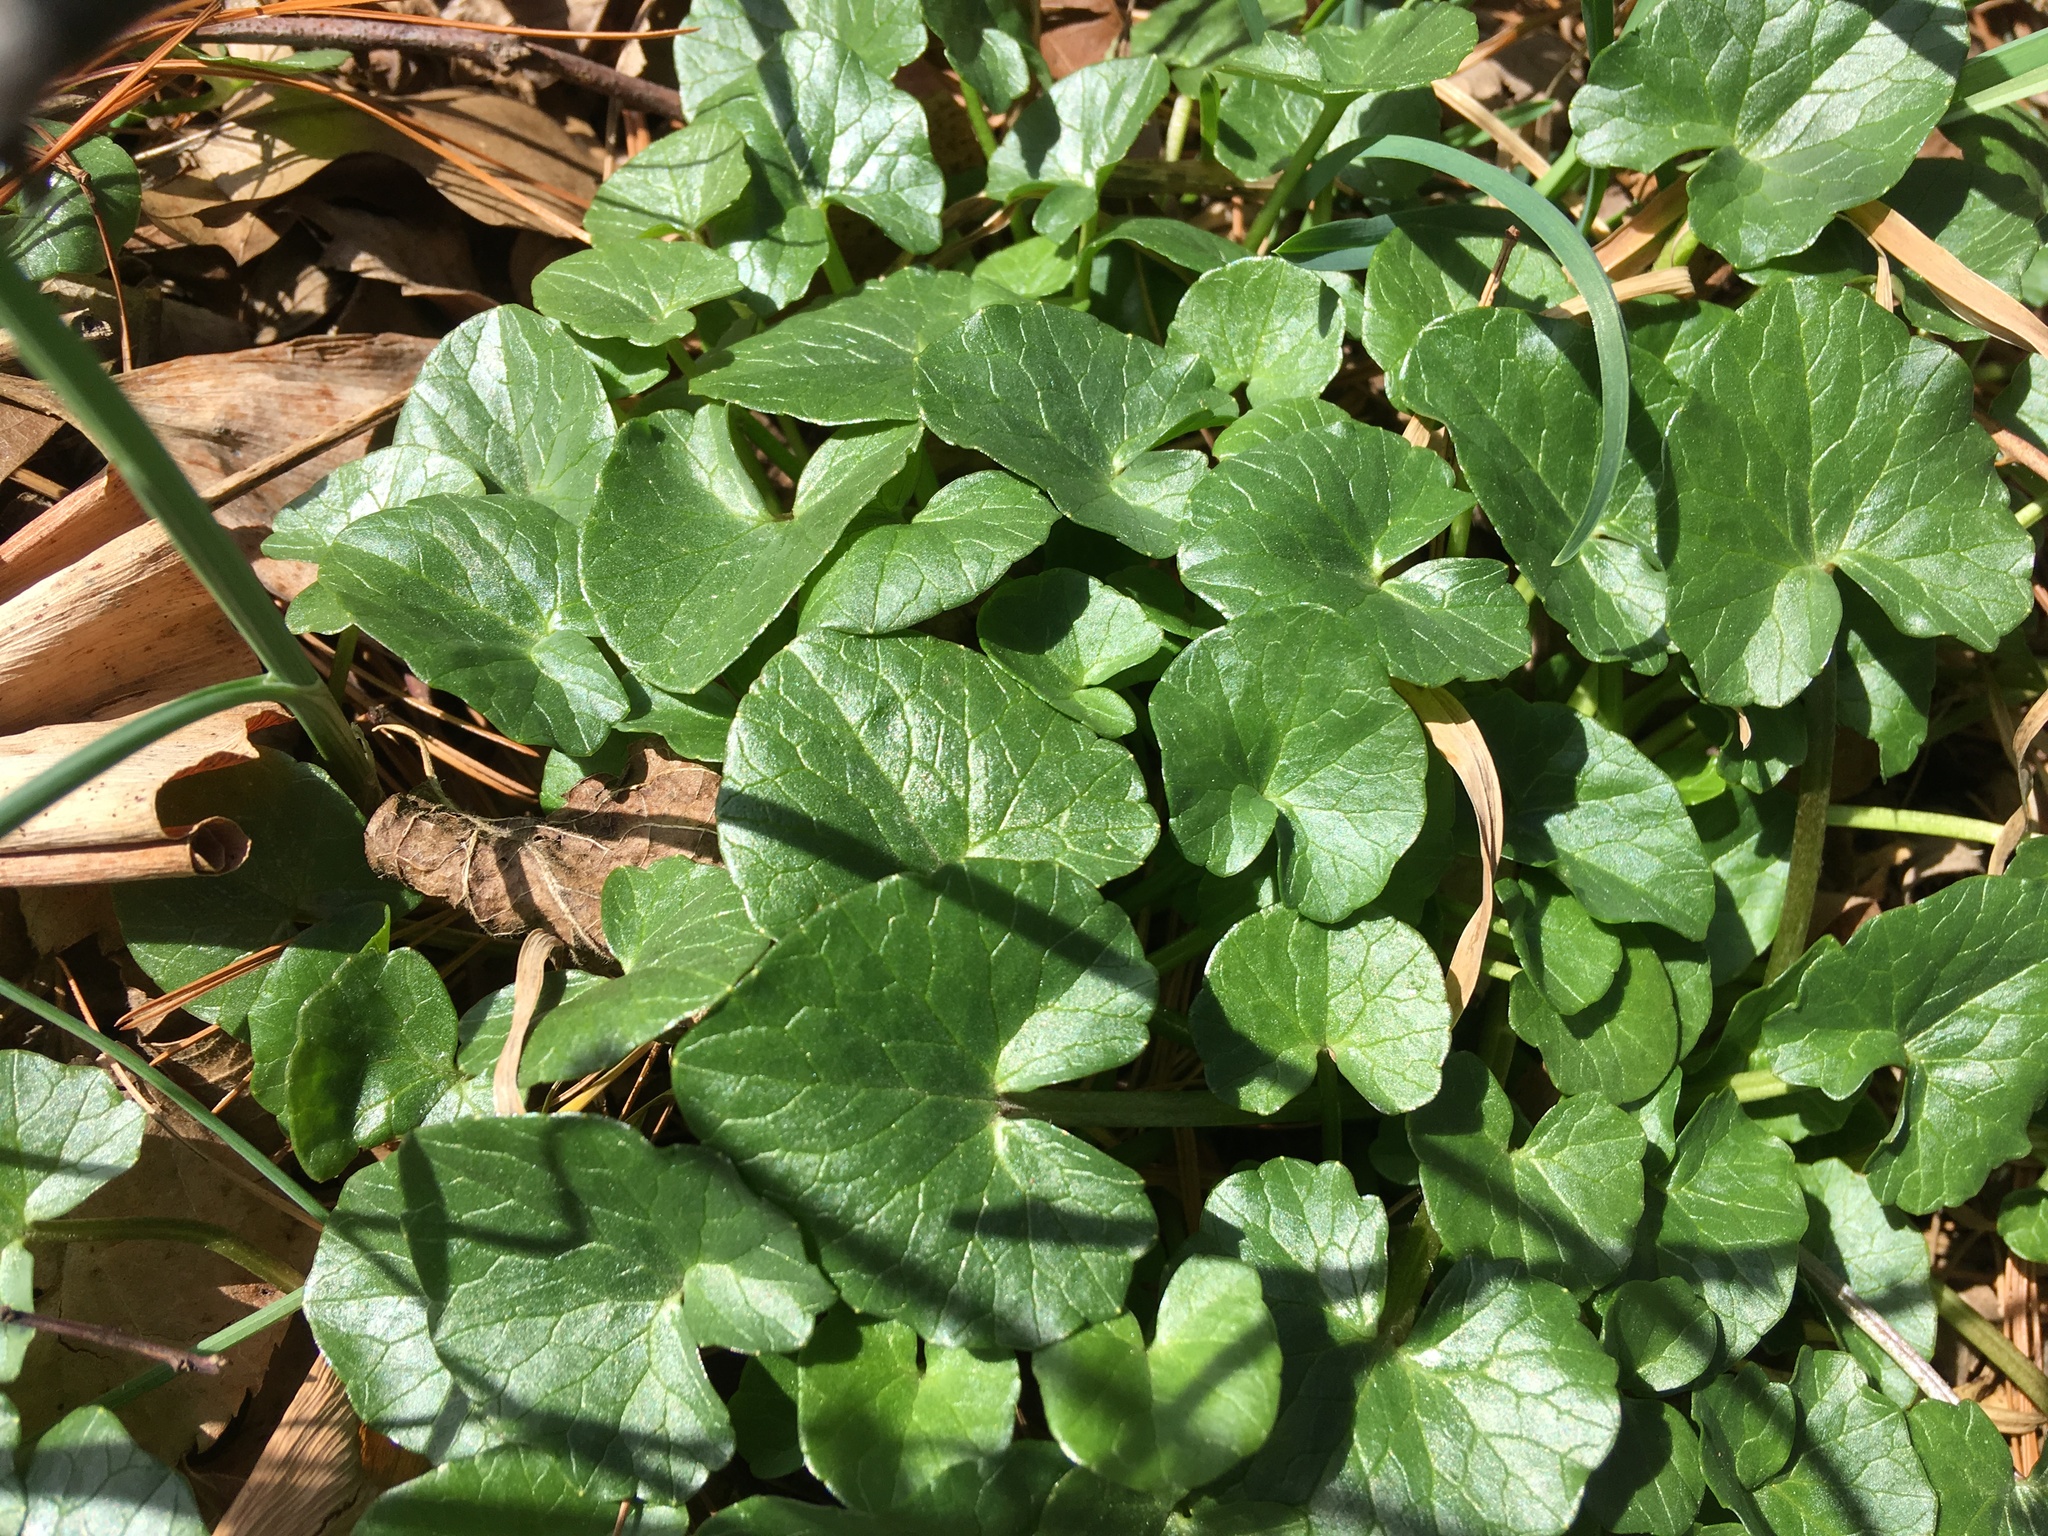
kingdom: Plantae
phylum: Tracheophyta
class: Magnoliopsida
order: Ranunculales
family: Ranunculaceae
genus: Ficaria
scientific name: Ficaria verna
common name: Lesser celandine
